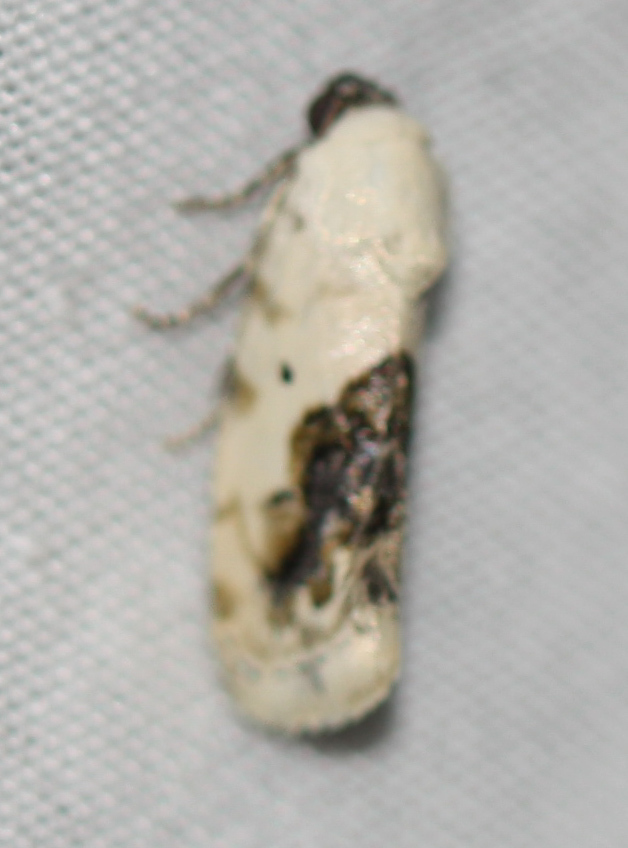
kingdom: Animalia
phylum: Arthropoda
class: Insecta
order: Lepidoptera
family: Noctuidae
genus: Acontia
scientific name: Acontia erastrioides
